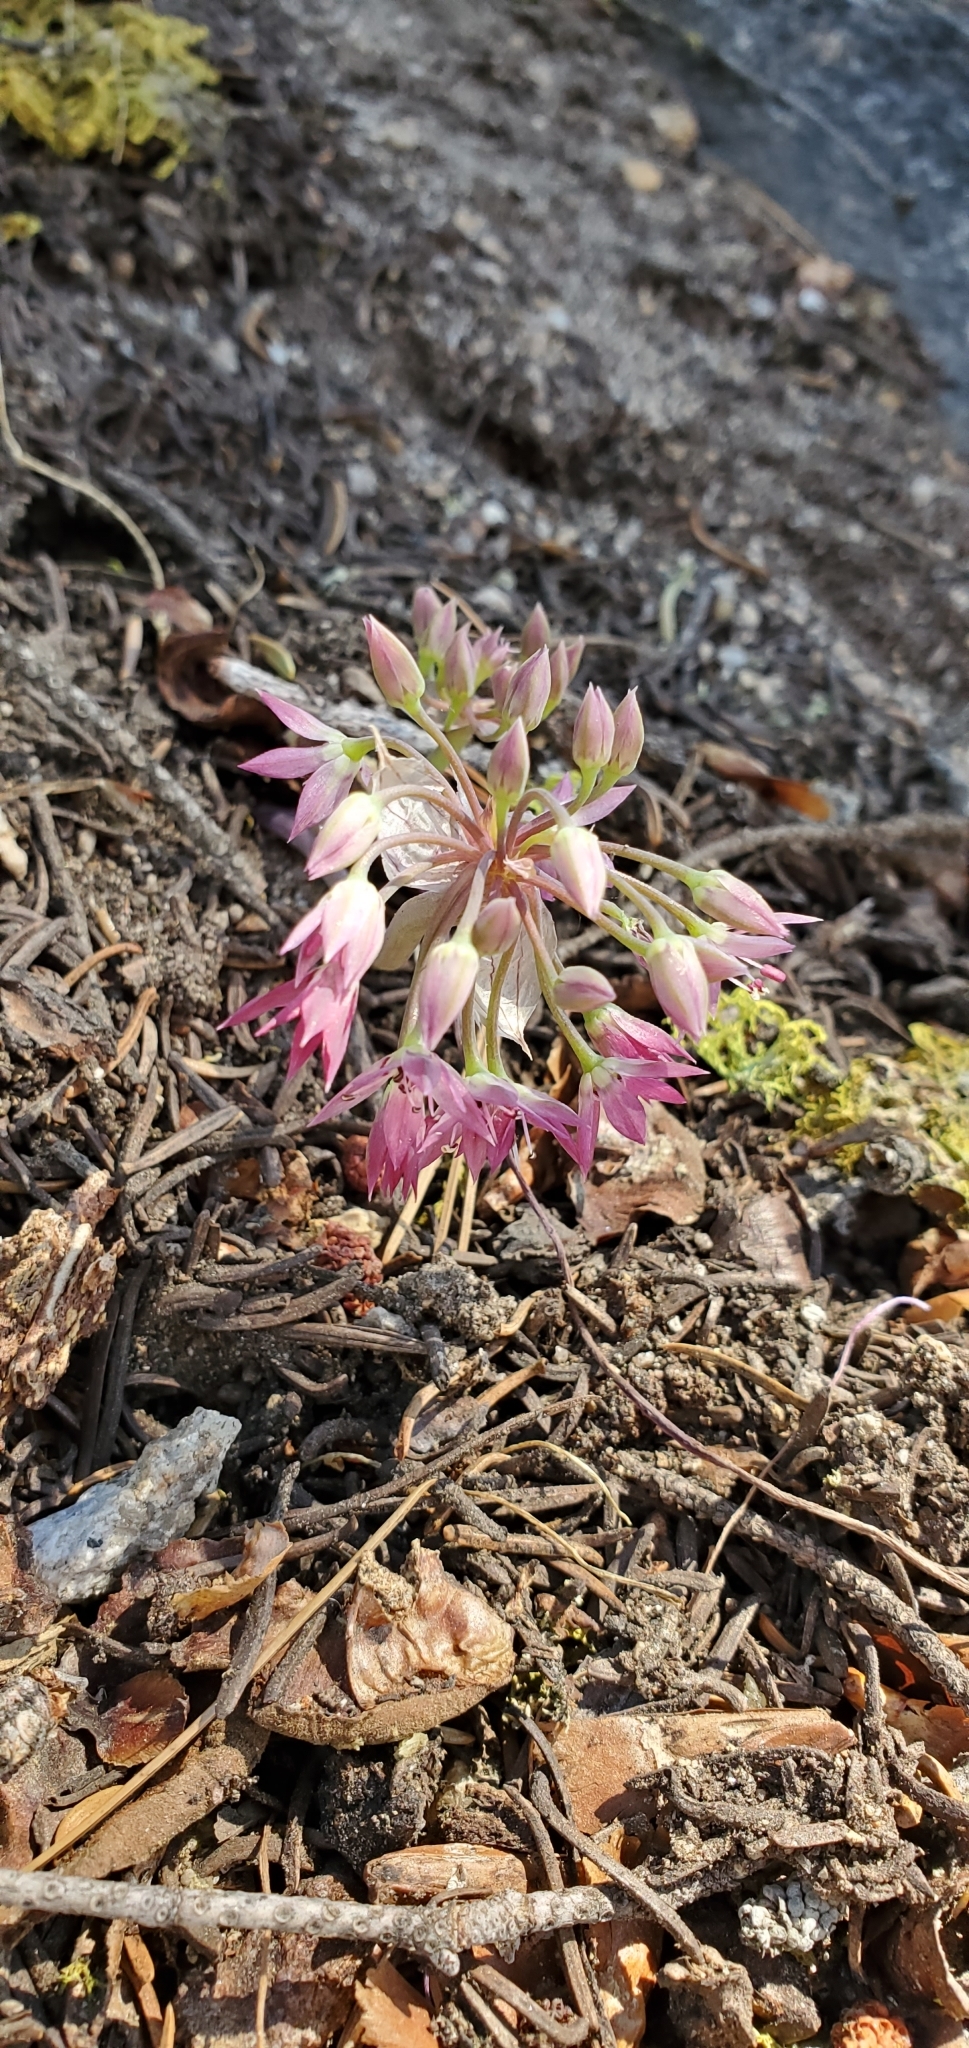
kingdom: Plantae
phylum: Tracheophyta
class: Liliopsida
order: Asparagales
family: Amaryllidaceae
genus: Allium
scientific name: Allium campanulatum
